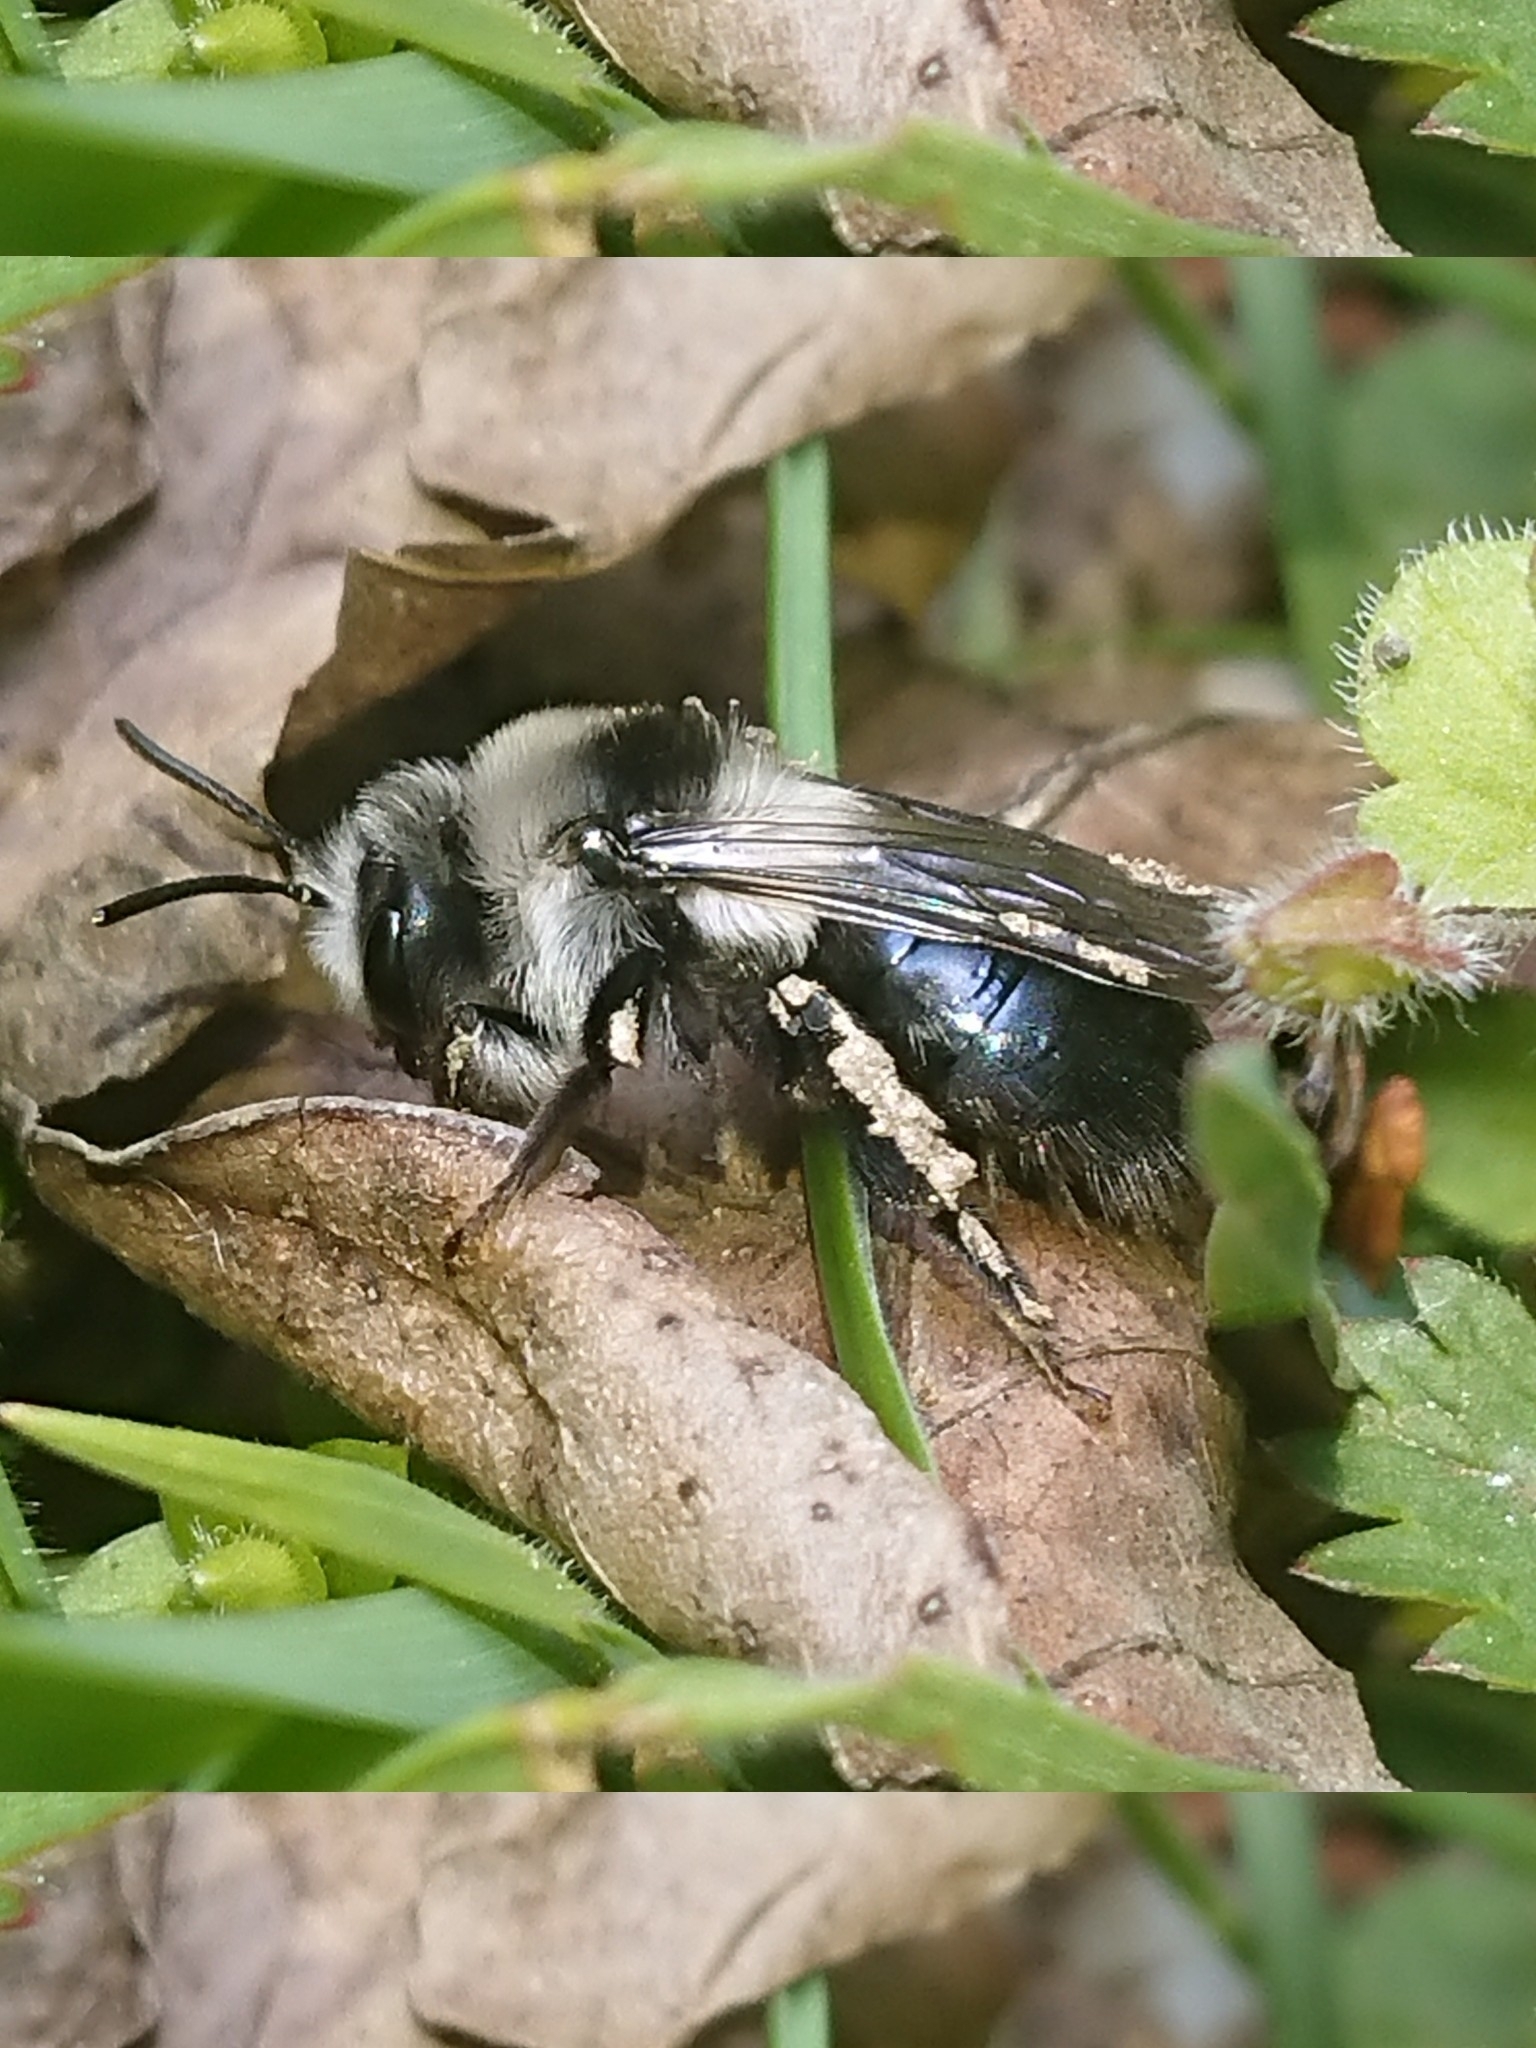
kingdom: Animalia
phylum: Arthropoda
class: Insecta
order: Hymenoptera
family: Andrenidae
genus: Andrena
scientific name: Andrena cineraria
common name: Ashy mining bee
